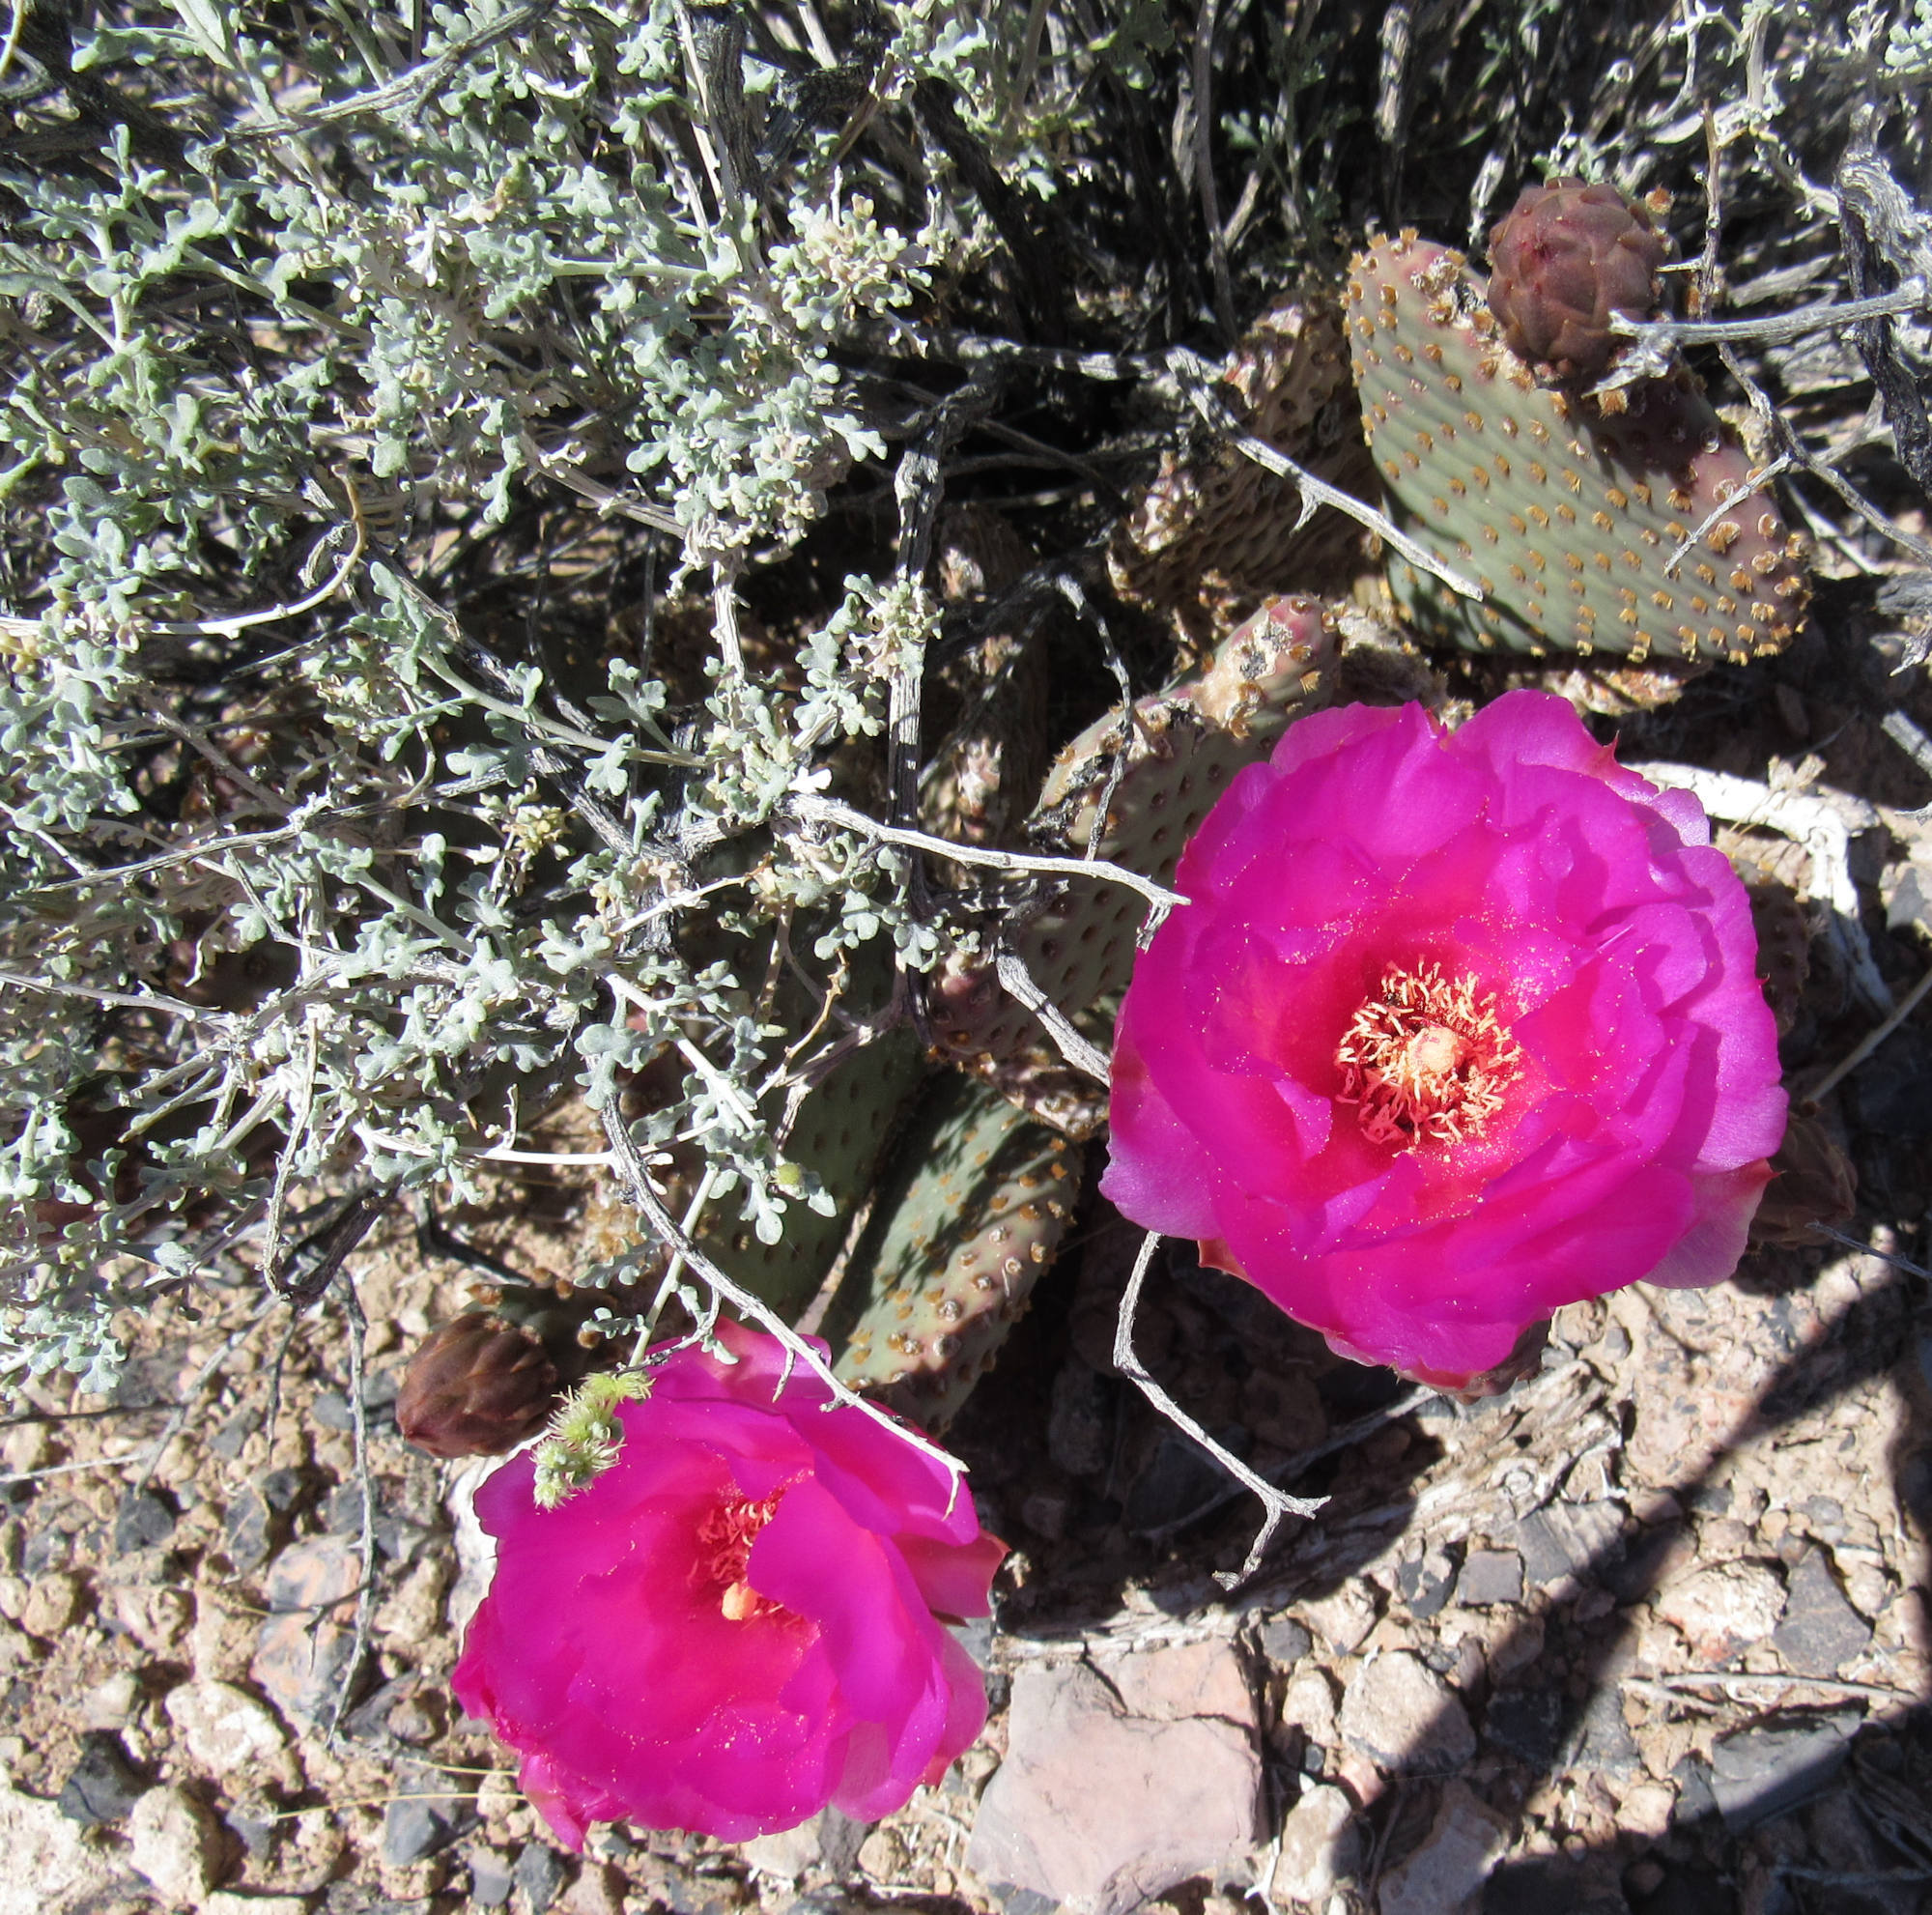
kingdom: Plantae
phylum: Tracheophyta
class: Magnoliopsida
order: Asterales
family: Asteraceae
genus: Ambrosia
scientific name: Ambrosia dumosa
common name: Bur-sage
